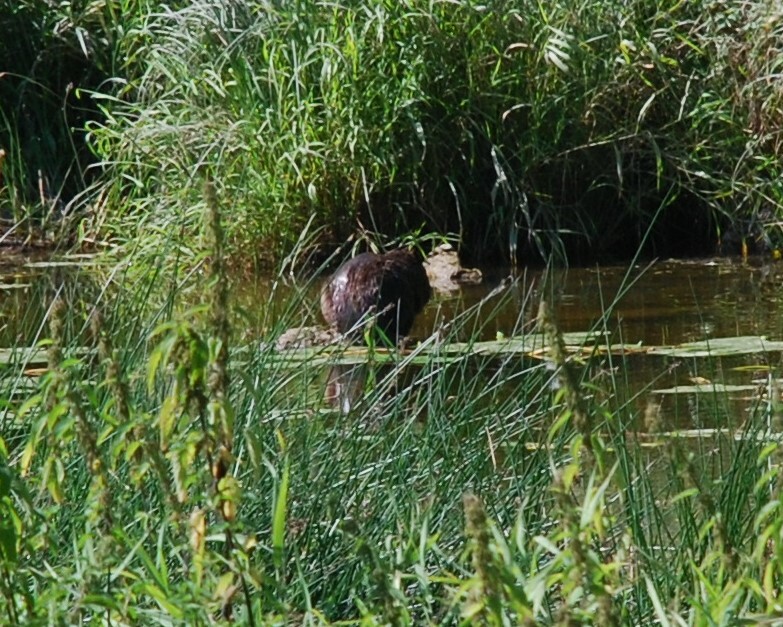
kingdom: Animalia
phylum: Chordata
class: Mammalia
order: Rodentia
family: Castoridae
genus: Castor
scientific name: Castor fiber
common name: Eurasian beaver
